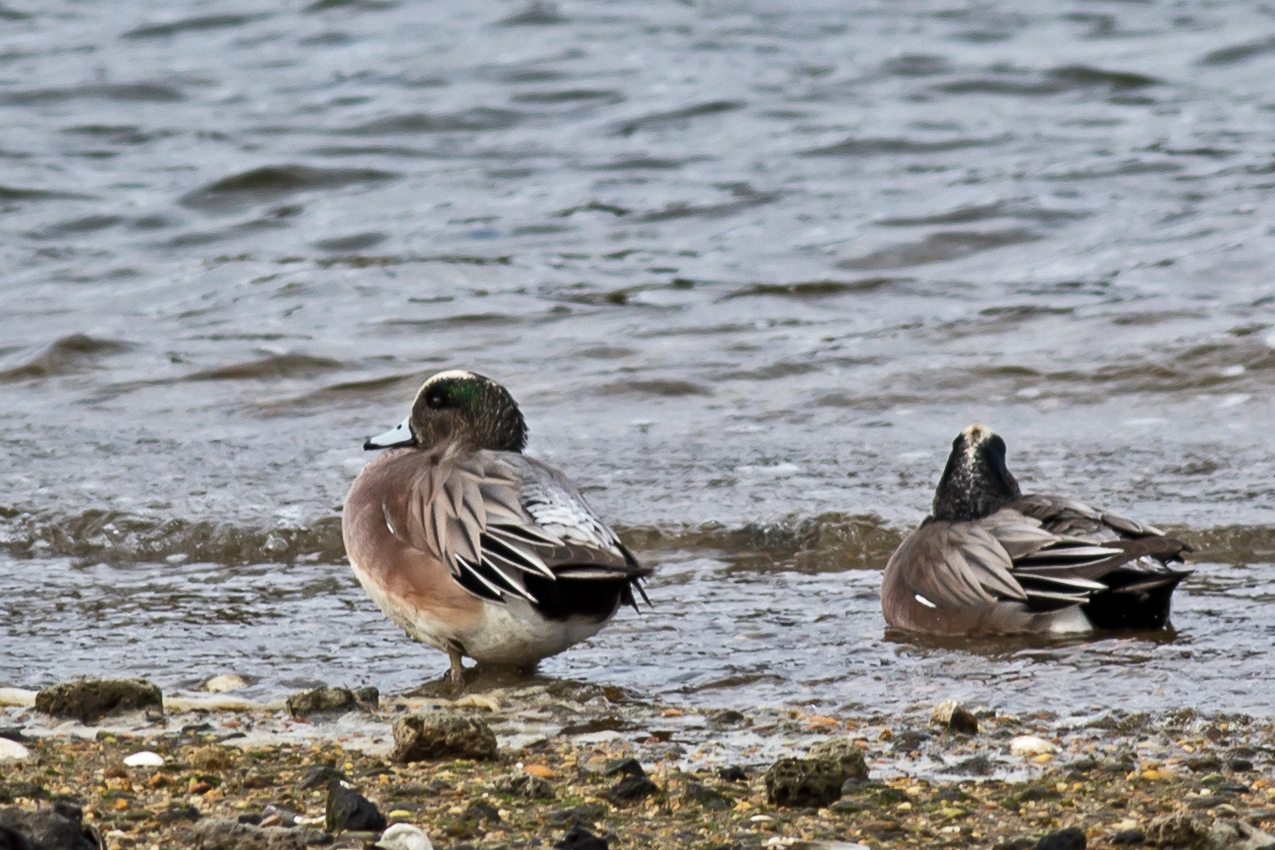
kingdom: Animalia
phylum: Chordata
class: Aves
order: Anseriformes
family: Anatidae
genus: Mareca
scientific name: Mareca americana
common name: American wigeon
